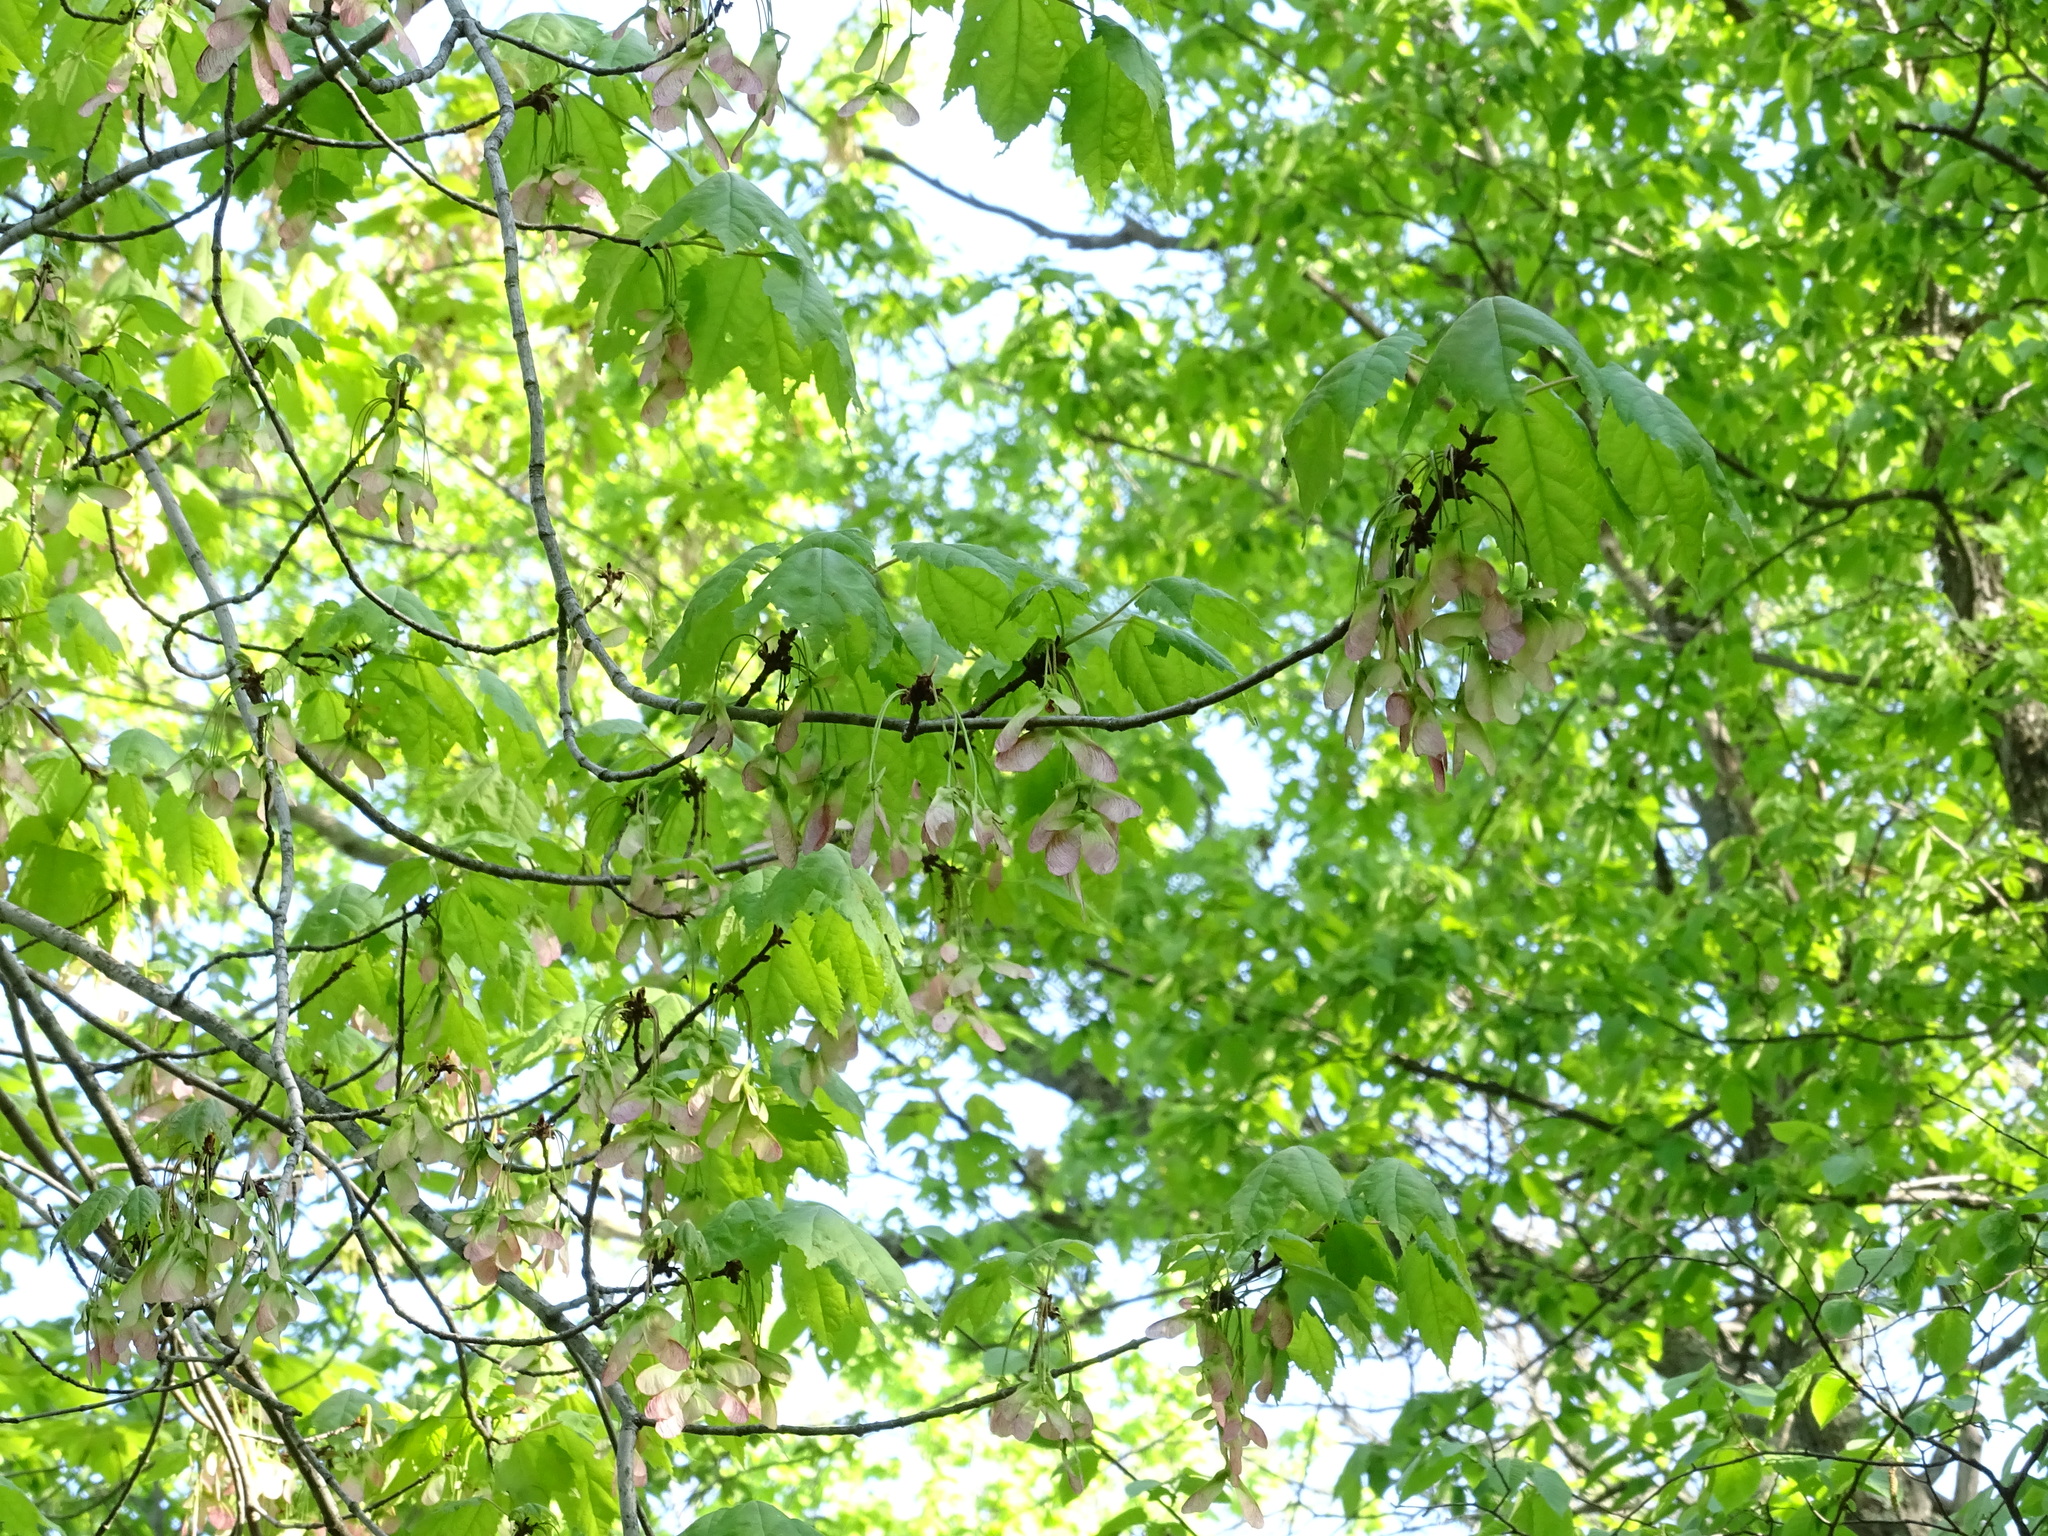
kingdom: Plantae
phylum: Tracheophyta
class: Magnoliopsida
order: Sapindales
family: Sapindaceae
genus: Acer
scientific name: Acer rubrum
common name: Red maple
